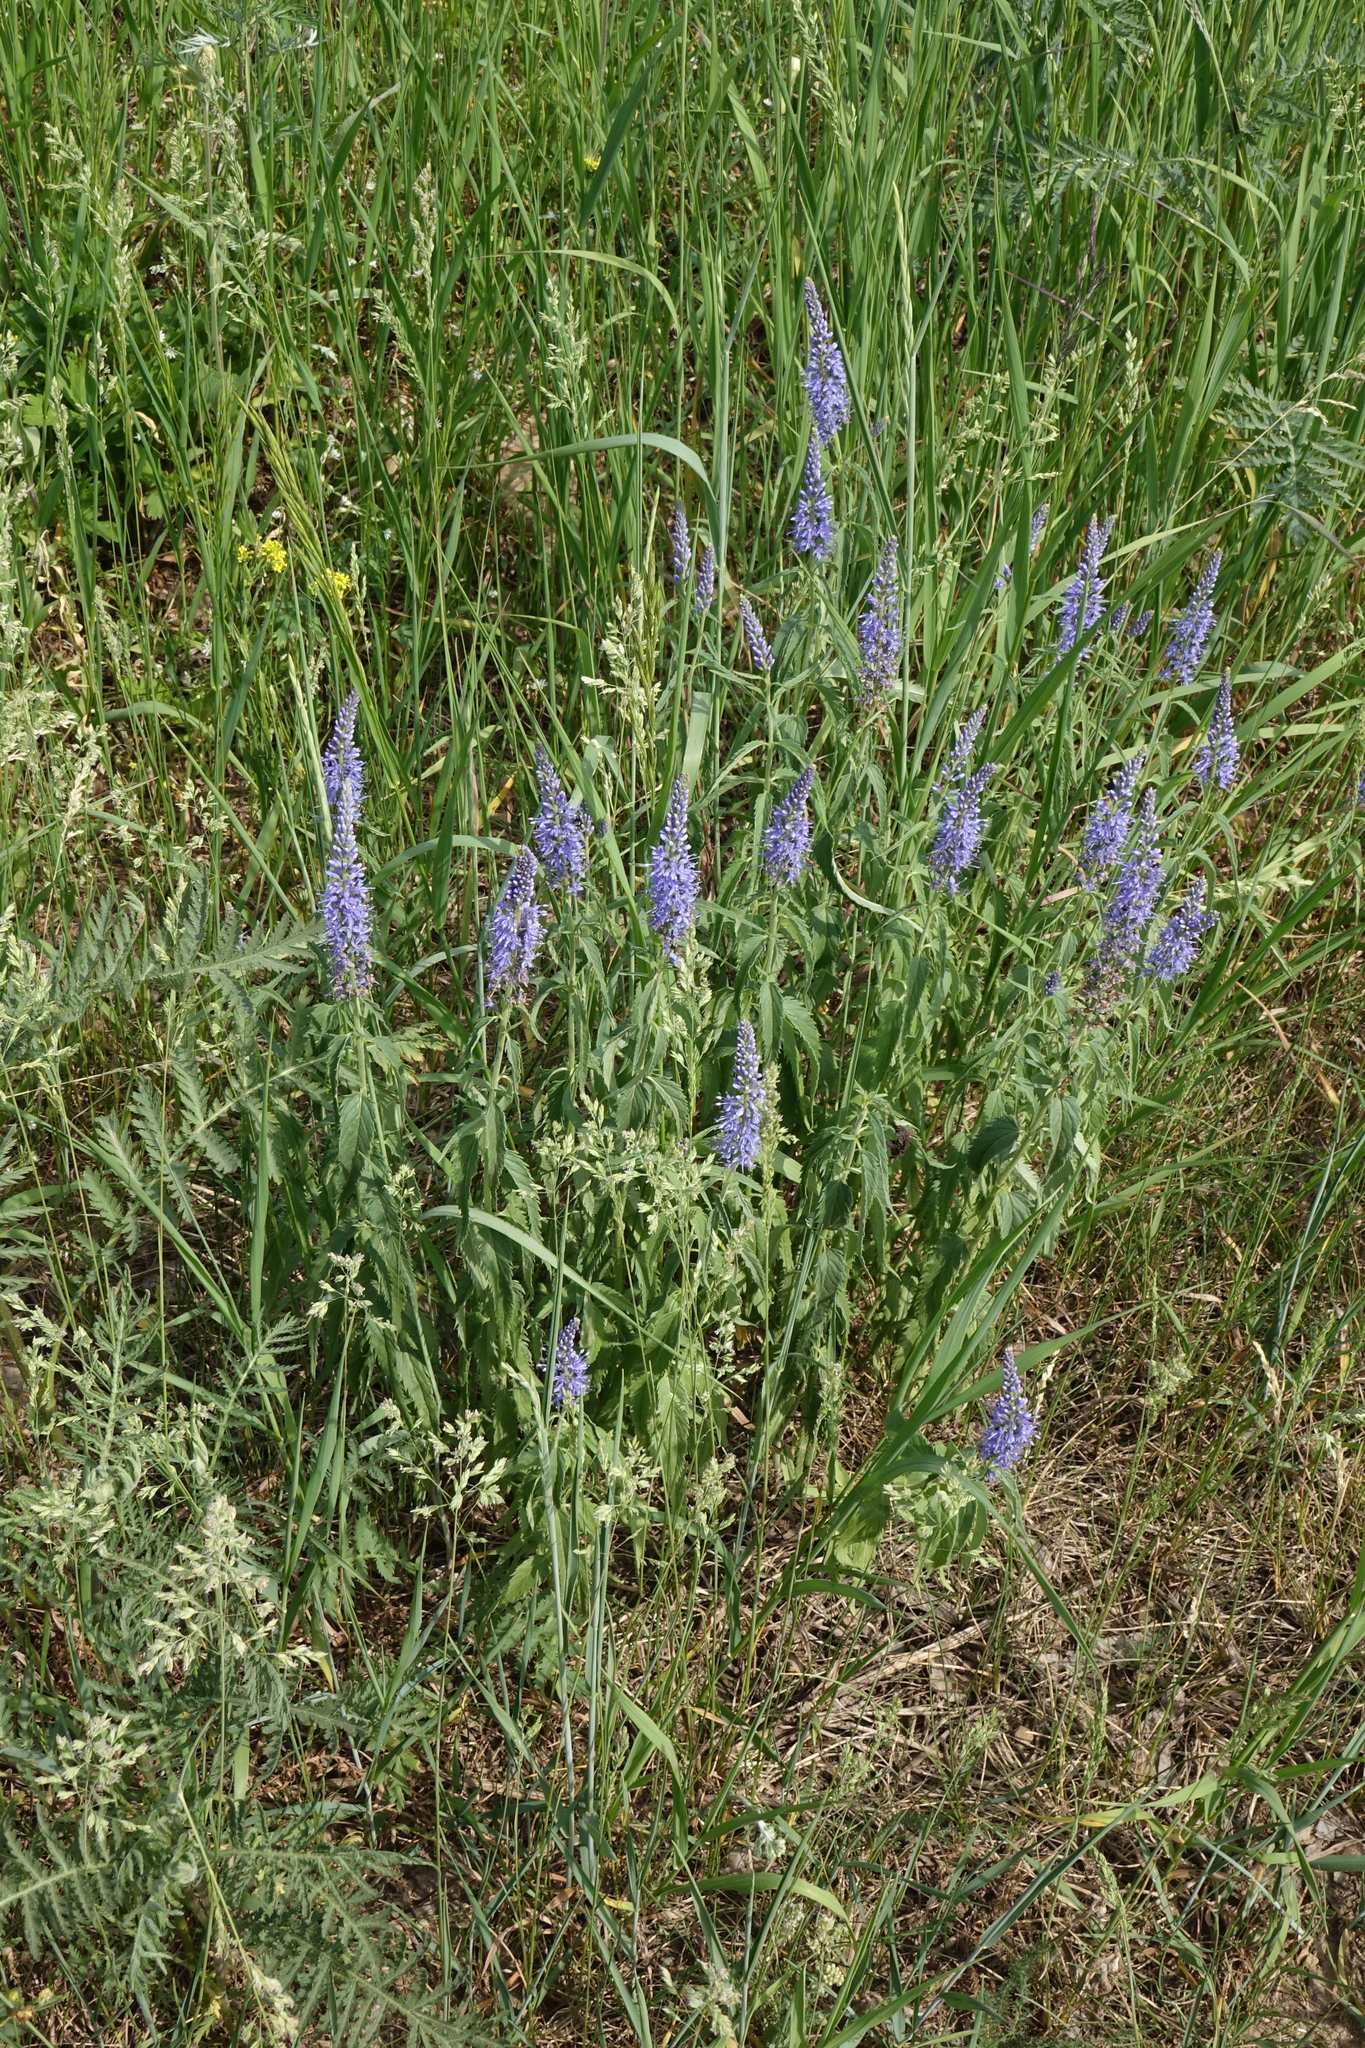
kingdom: Plantae
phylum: Tracheophyta
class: Magnoliopsida
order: Lamiales
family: Plantaginaceae
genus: Veronica
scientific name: Veronica longifolia
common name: Garden speedwell
